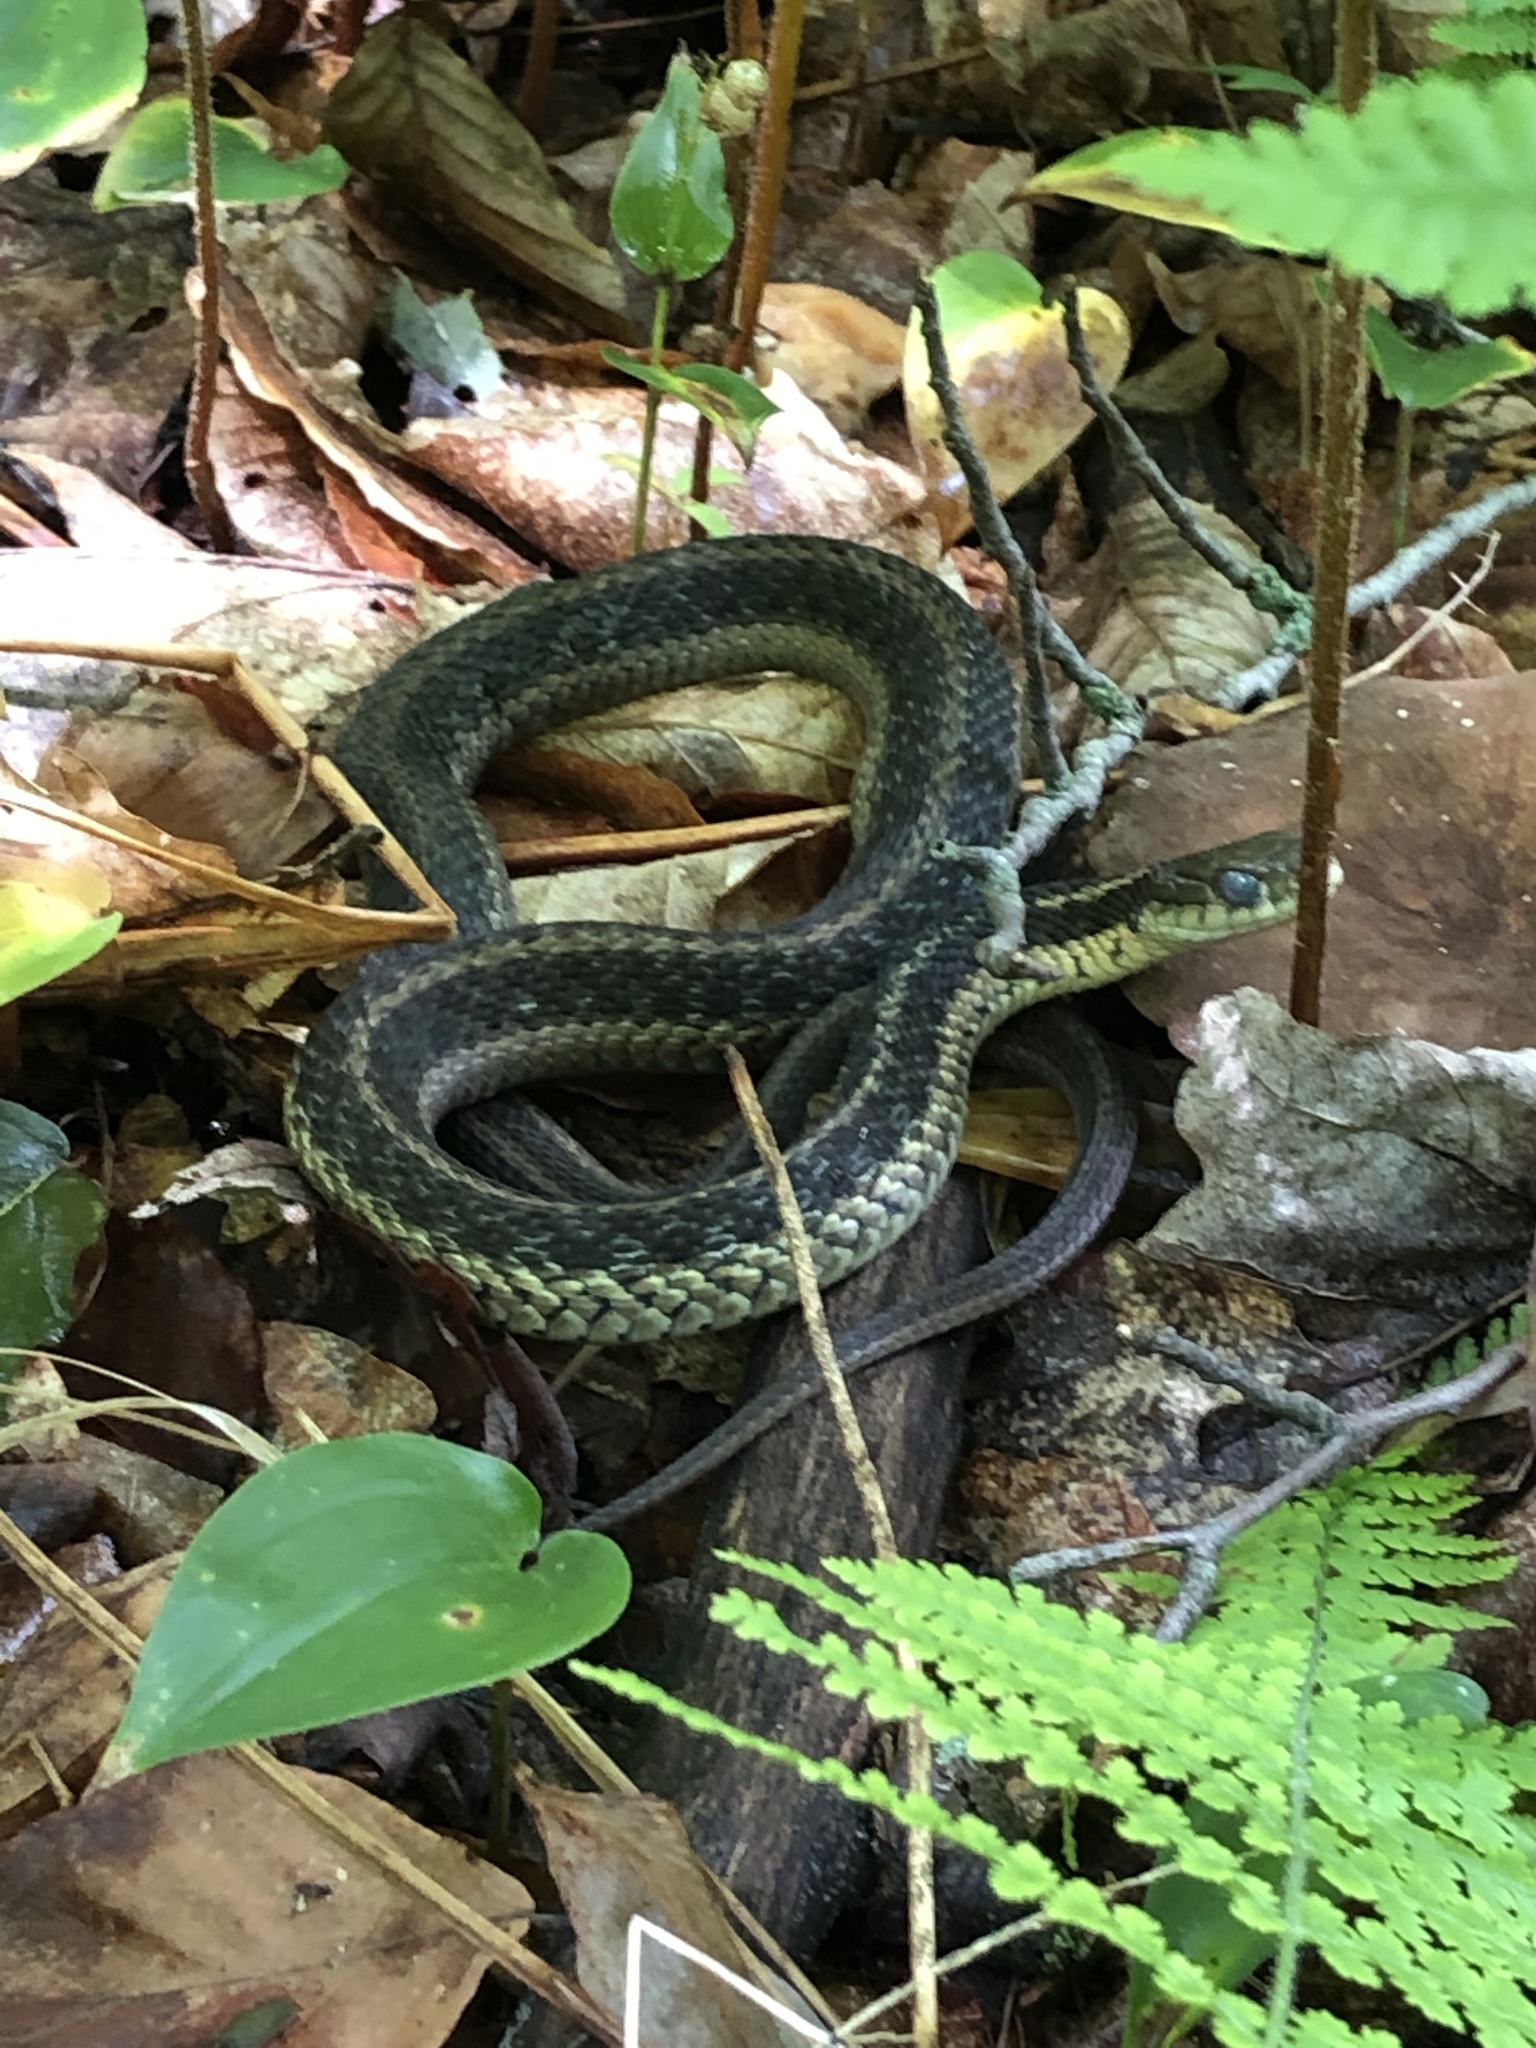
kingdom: Animalia
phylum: Chordata
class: Squamata
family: Colubridae
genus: Thamnophis
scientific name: Thamnophis sirtalis
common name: Common garter snake
